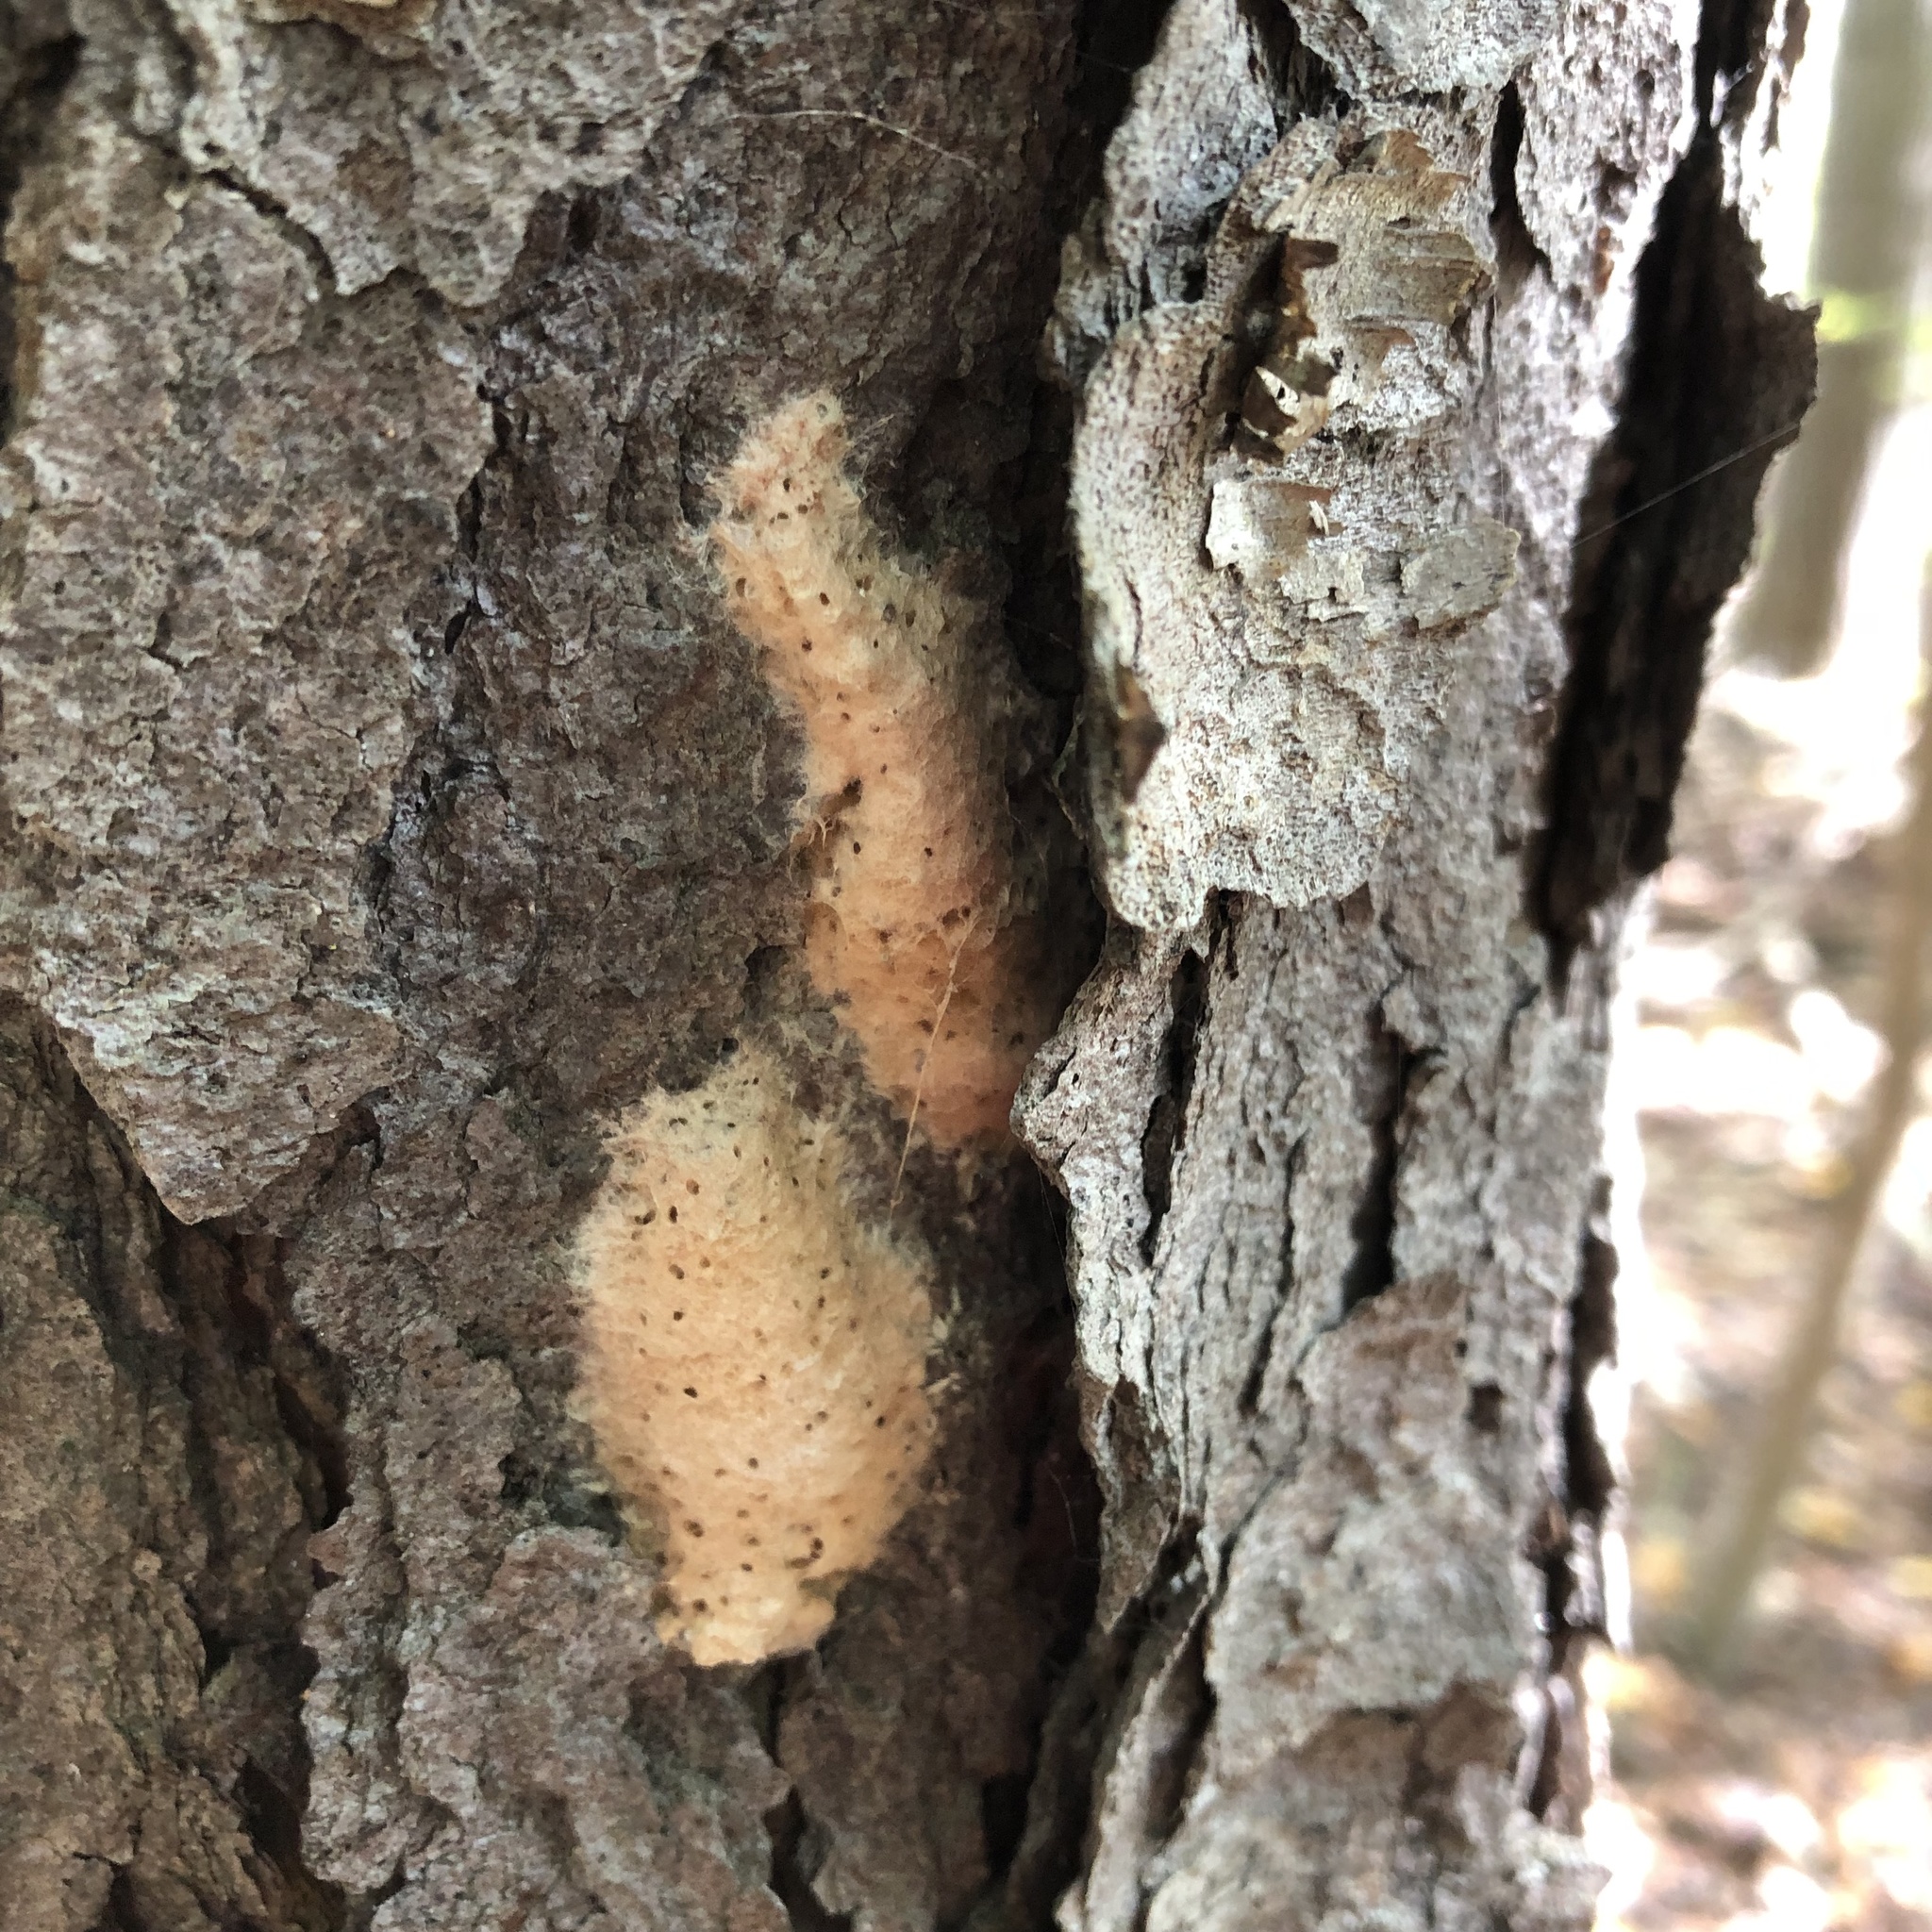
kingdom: Animalia
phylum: Arthropoda
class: Insecta
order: Lepidoptera
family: Erebidae
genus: Lymantria
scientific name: Lymantria dispar
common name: Gypsy moth
